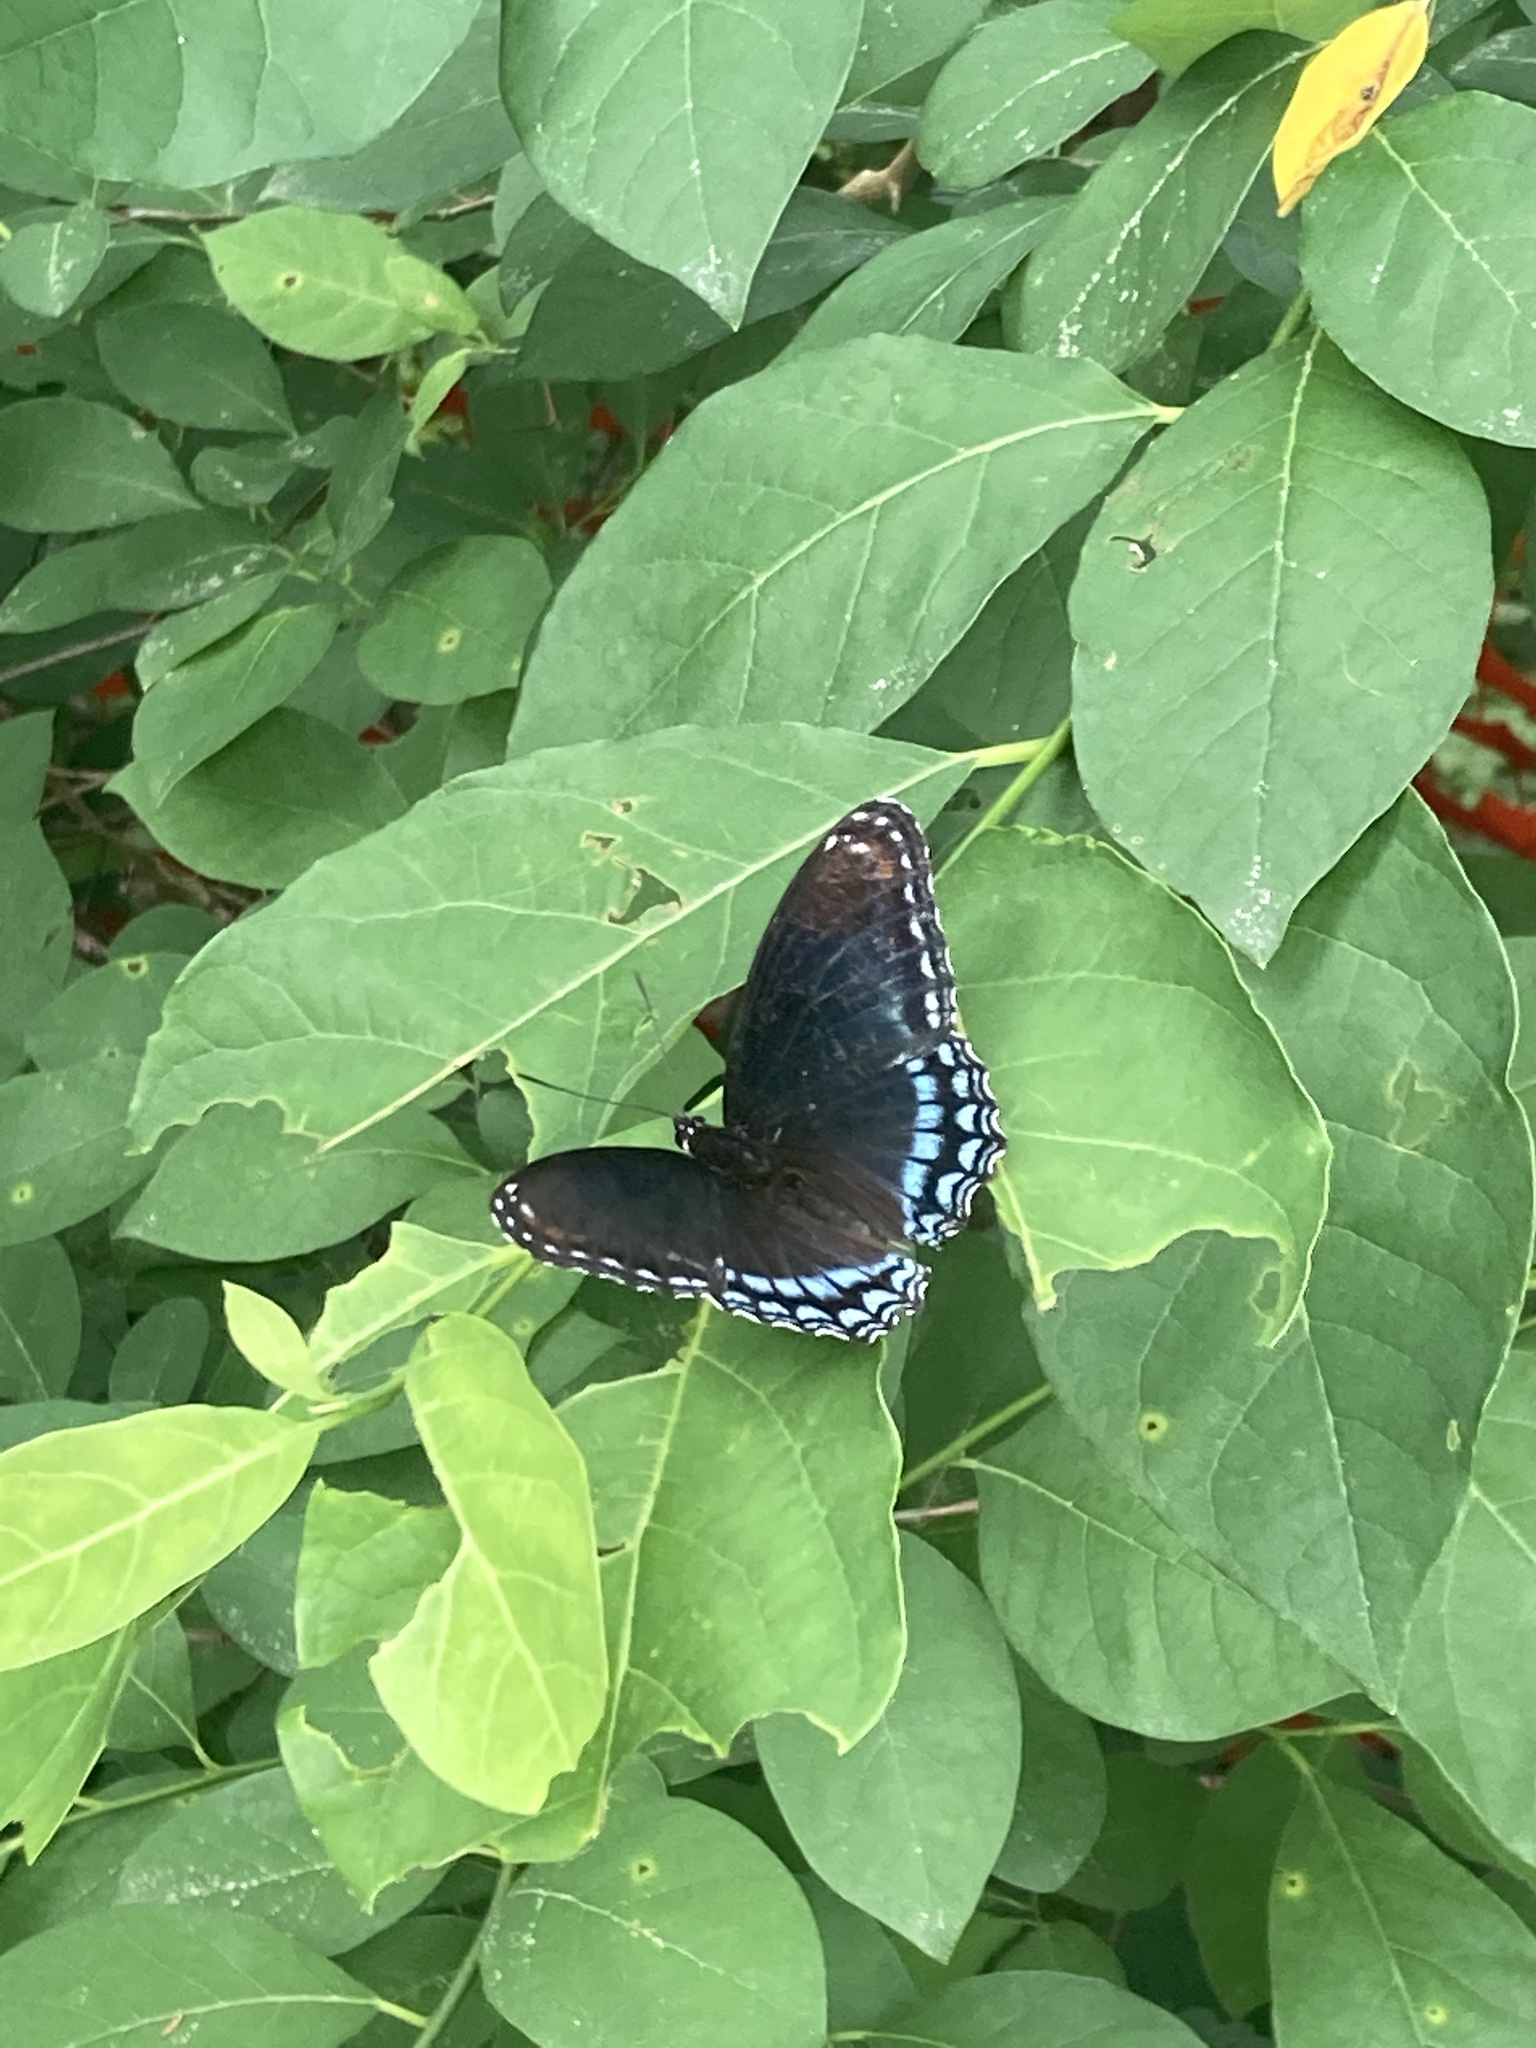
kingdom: Animalia
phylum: Arthropoda
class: Insecta
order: Lepidoptera
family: Nymphalidae
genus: Limenitis
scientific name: Limenitis astyanax
